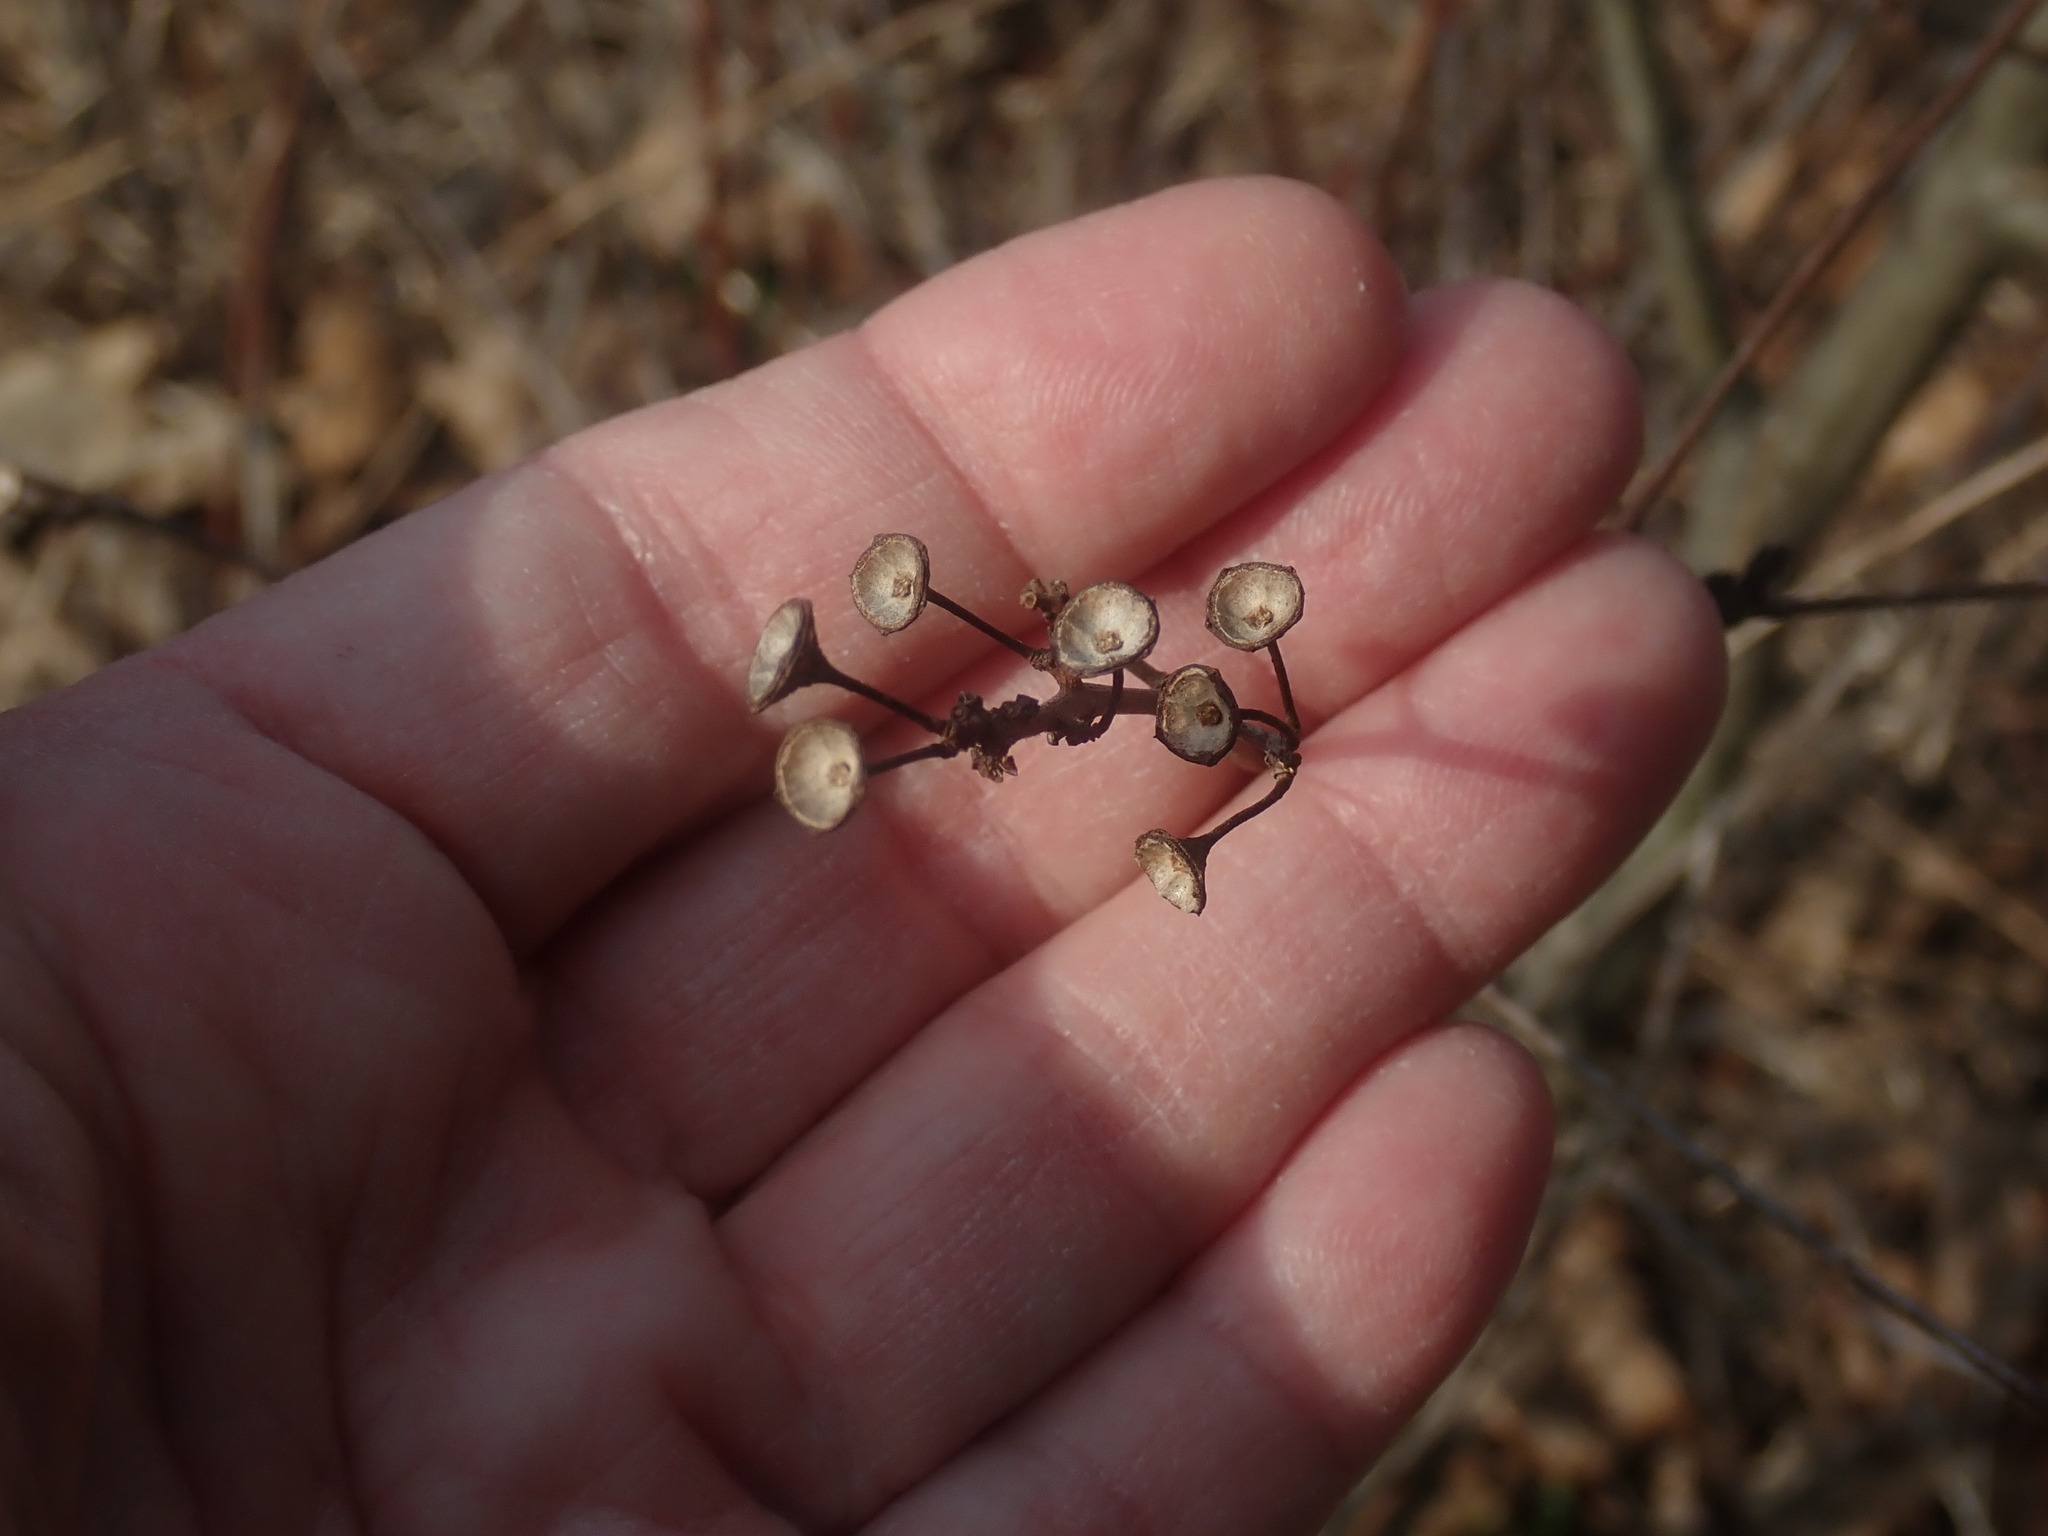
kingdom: Plantae
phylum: Tracheophyta
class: Magnoliopsida
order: Rosales
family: Rhamnaceae
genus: Ceanothus
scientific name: Ceanothus americanus
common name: Redroot
